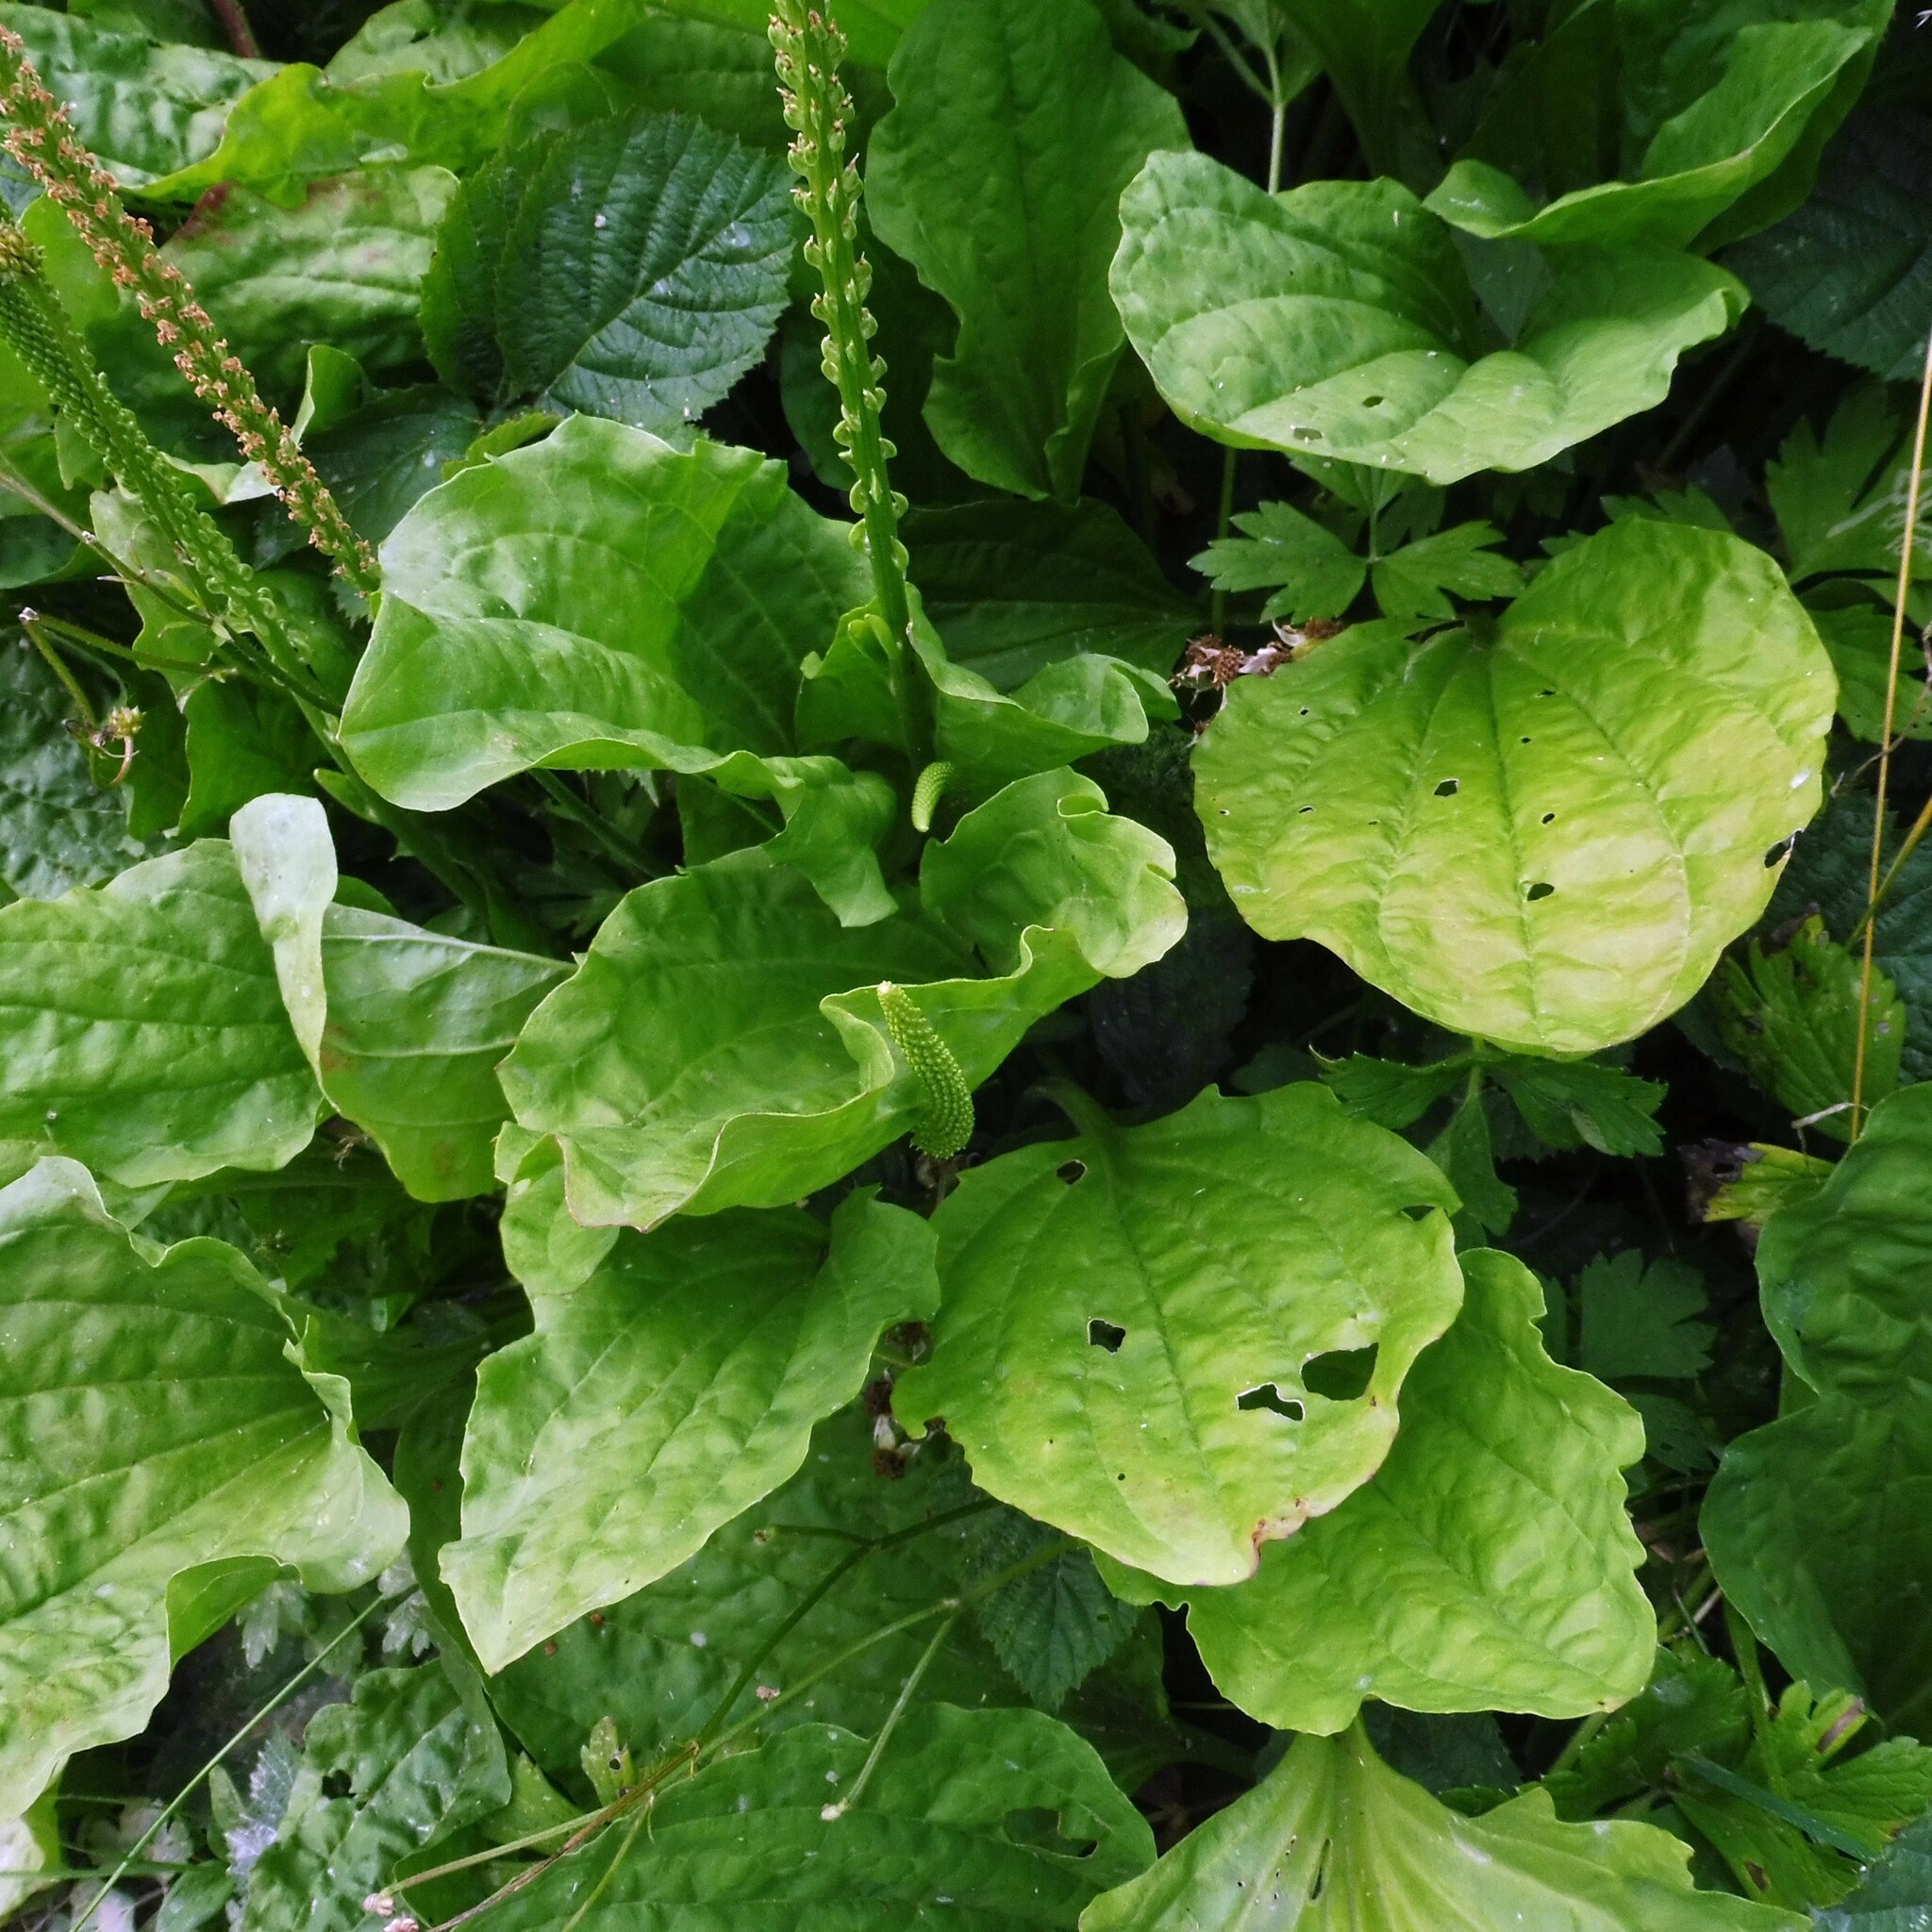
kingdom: Plantae
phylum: Tracheophyta
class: Magnoliopsida
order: Lamiales
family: Plantaginaceae
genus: Plantago
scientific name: Plantago major
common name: Common plantain
